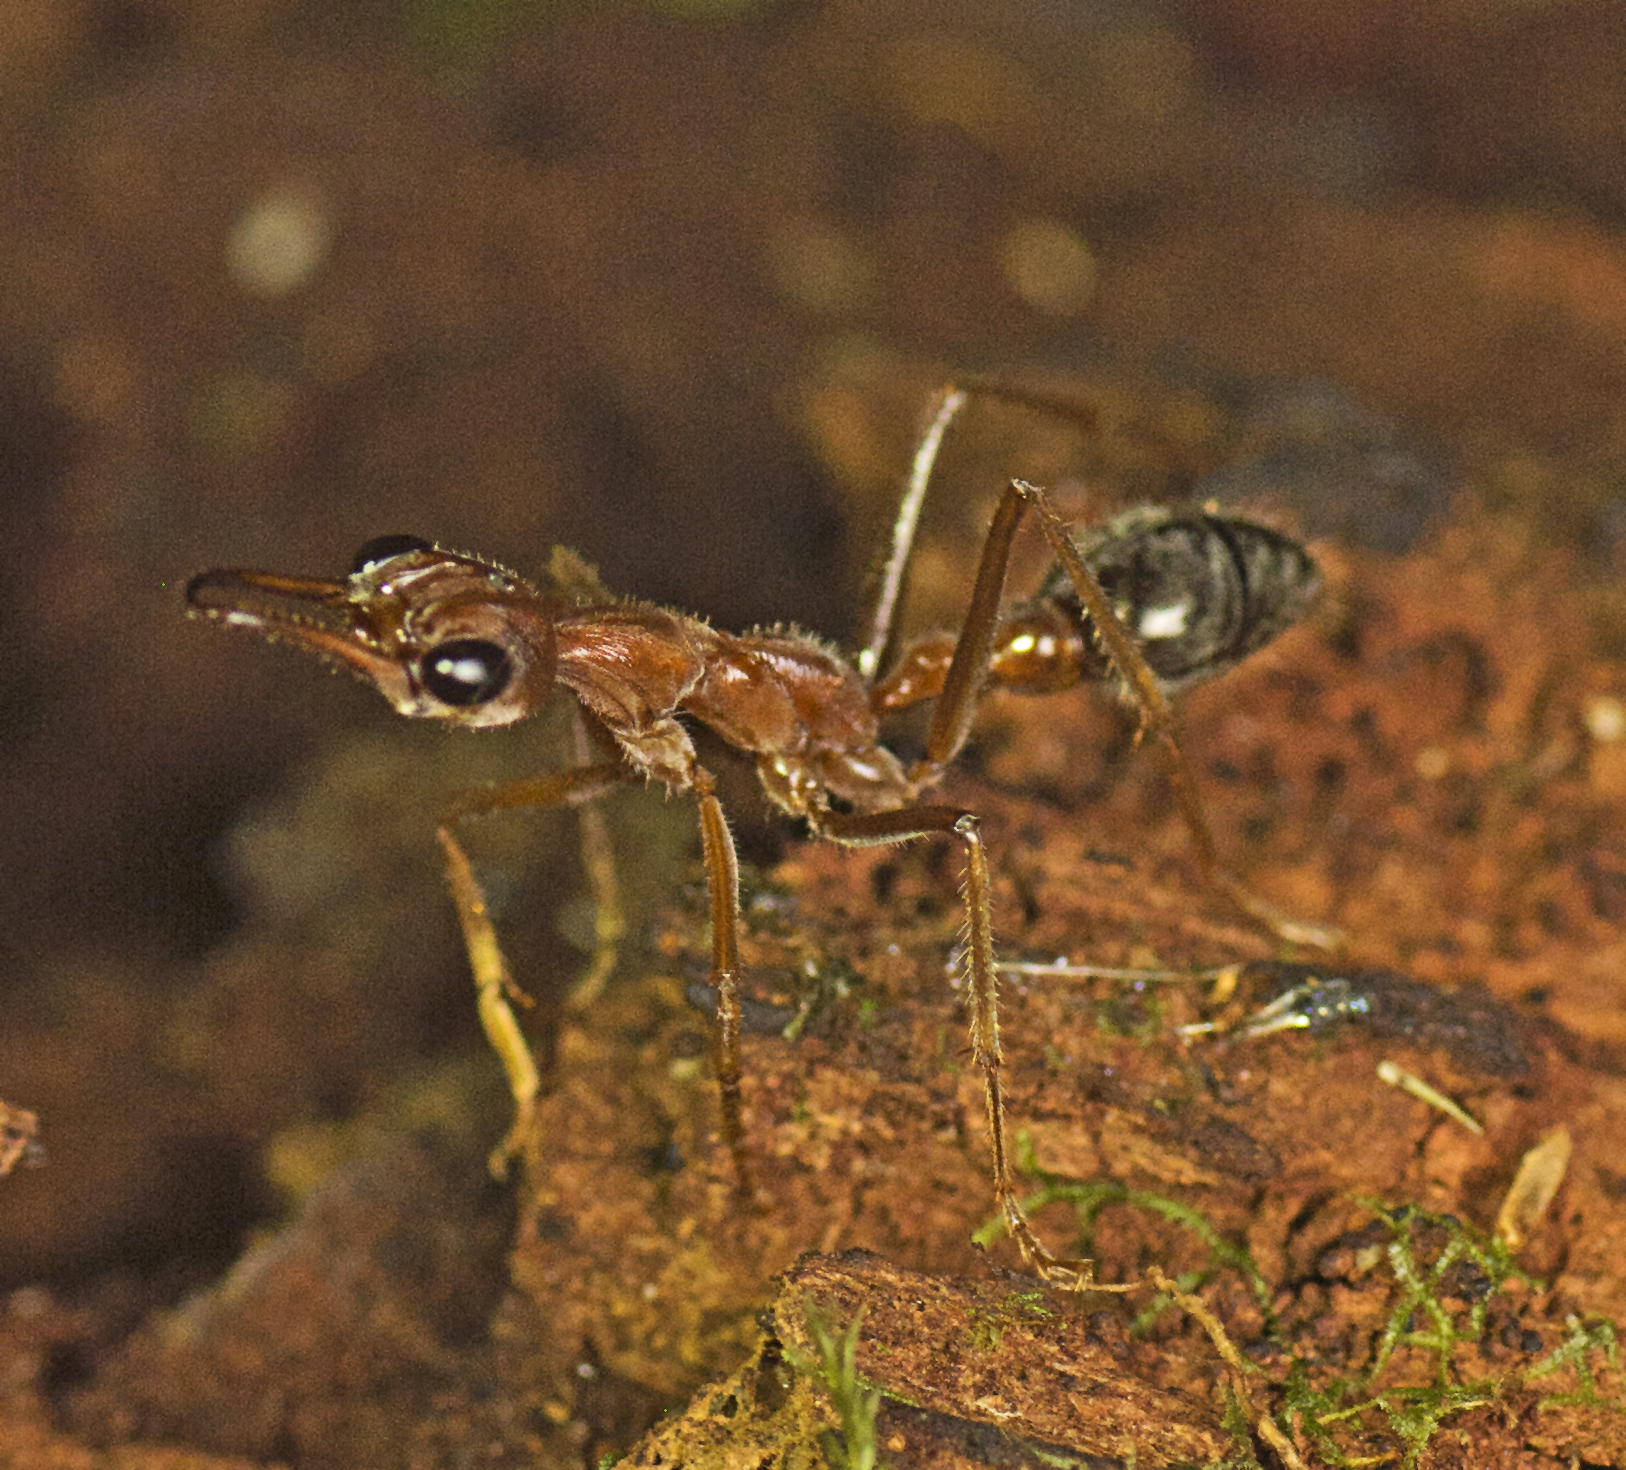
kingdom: Animalia
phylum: Arthropoda
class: Insecta
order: Hymenoptera
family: Formicidae
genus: Myrmecia
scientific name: Myrmecia brevinoda
